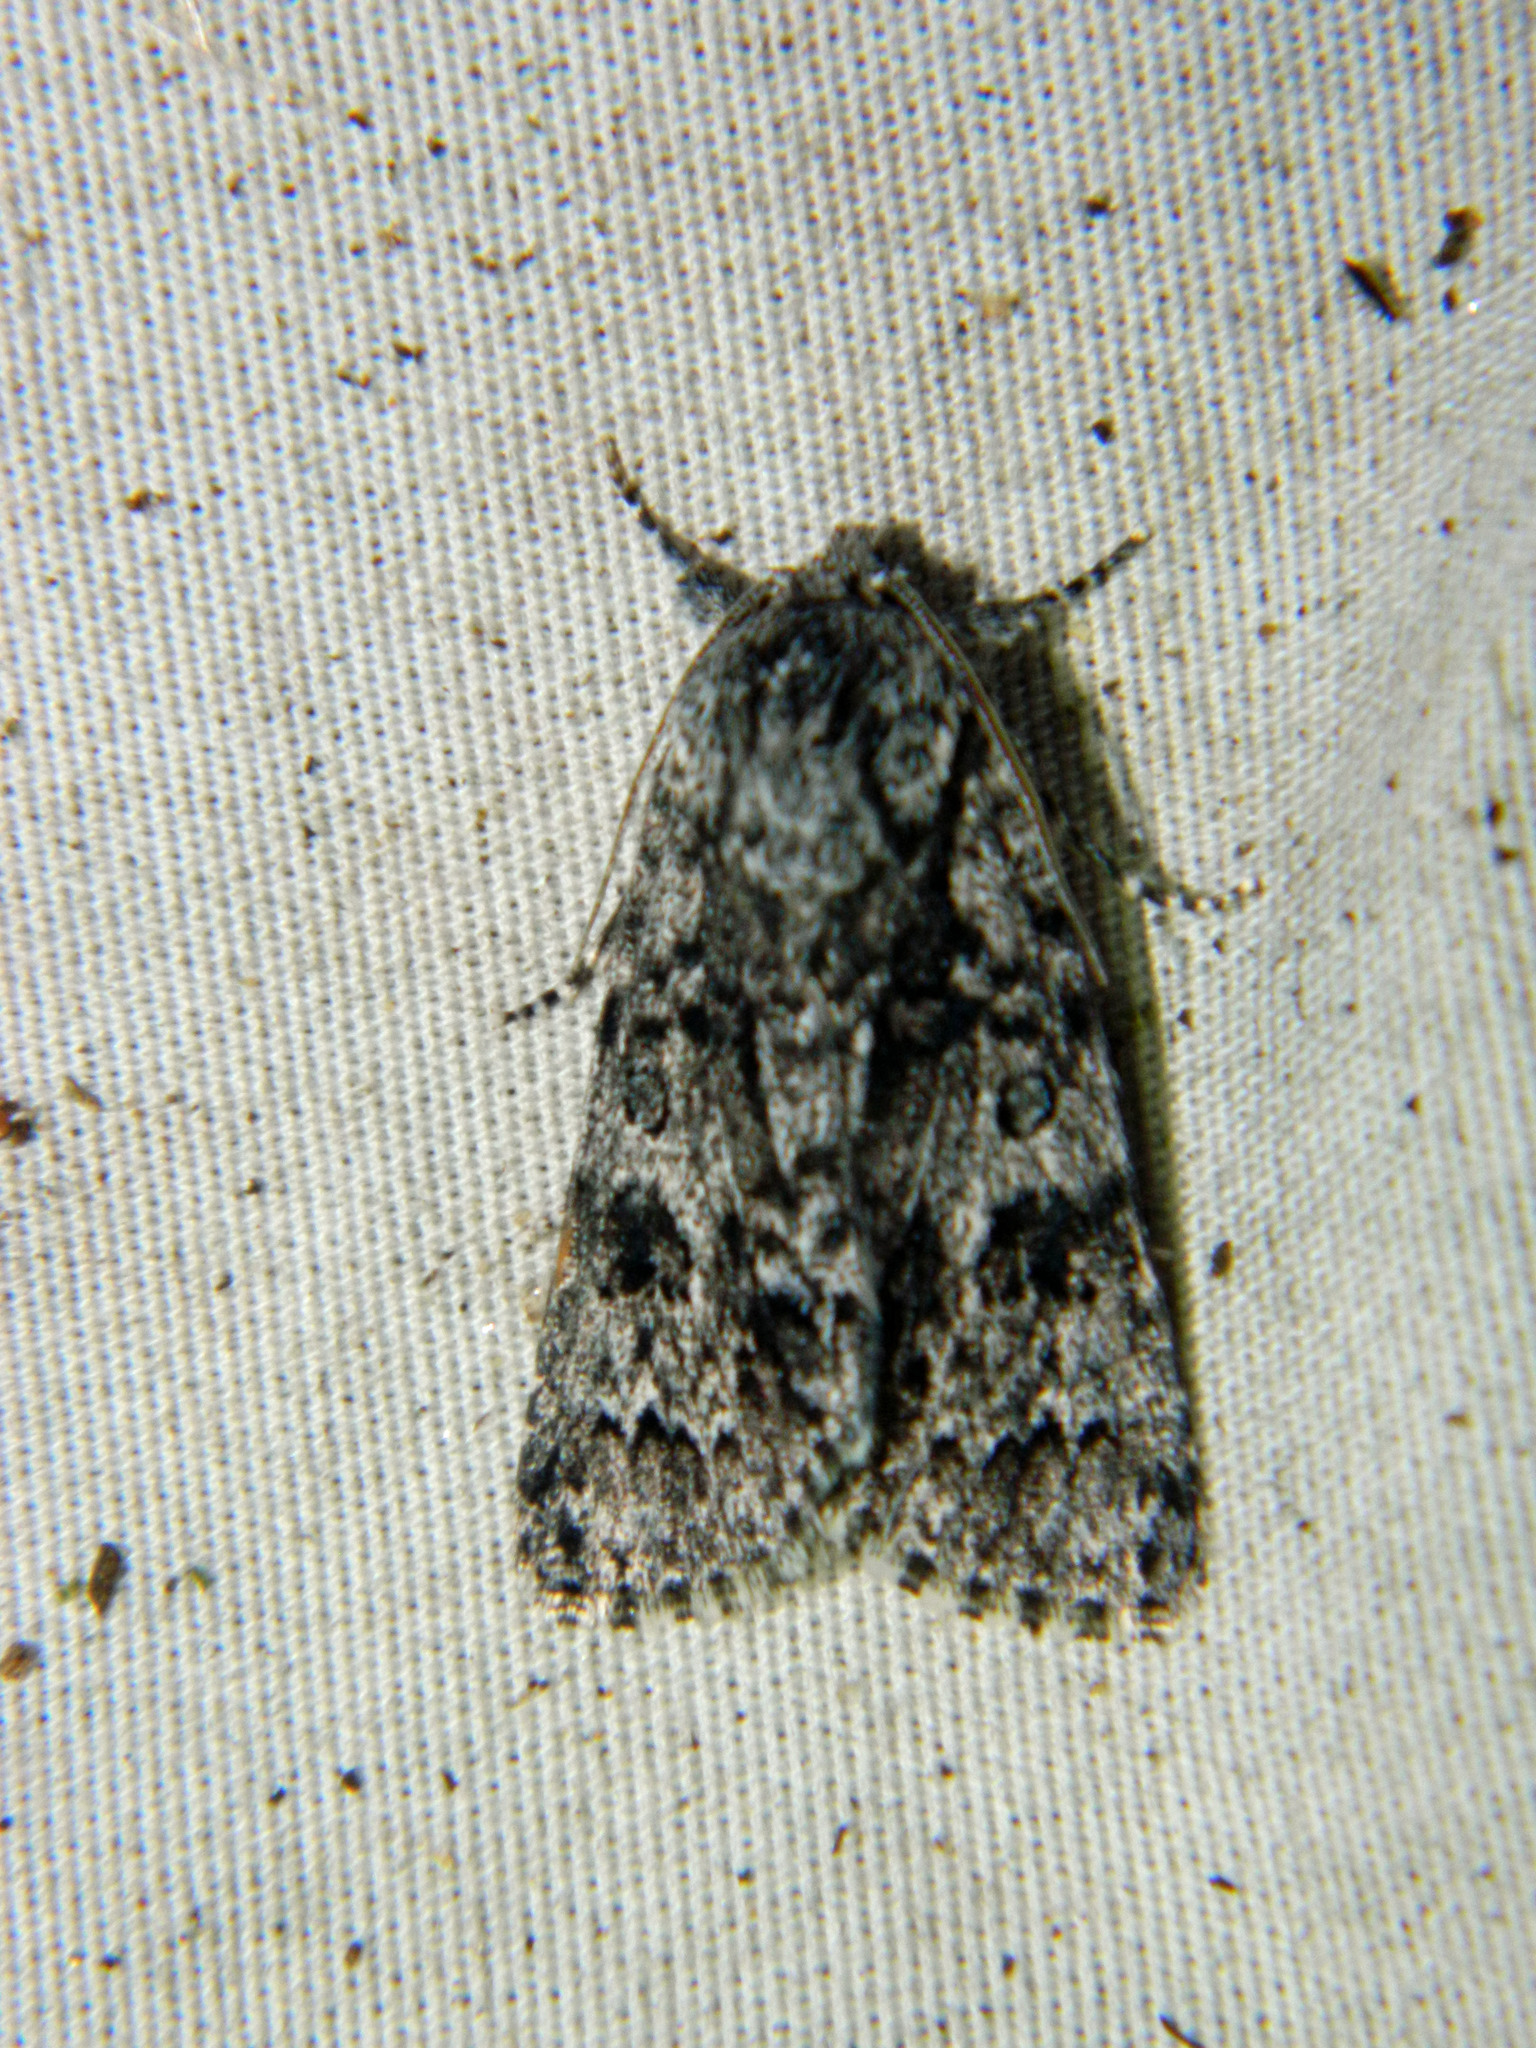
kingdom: Animalia
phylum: Arthropoda
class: Insecta
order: Lepidoptera
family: Noctuidae
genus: Acronicta
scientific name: Acronicta impressa
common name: Impressed dagger
